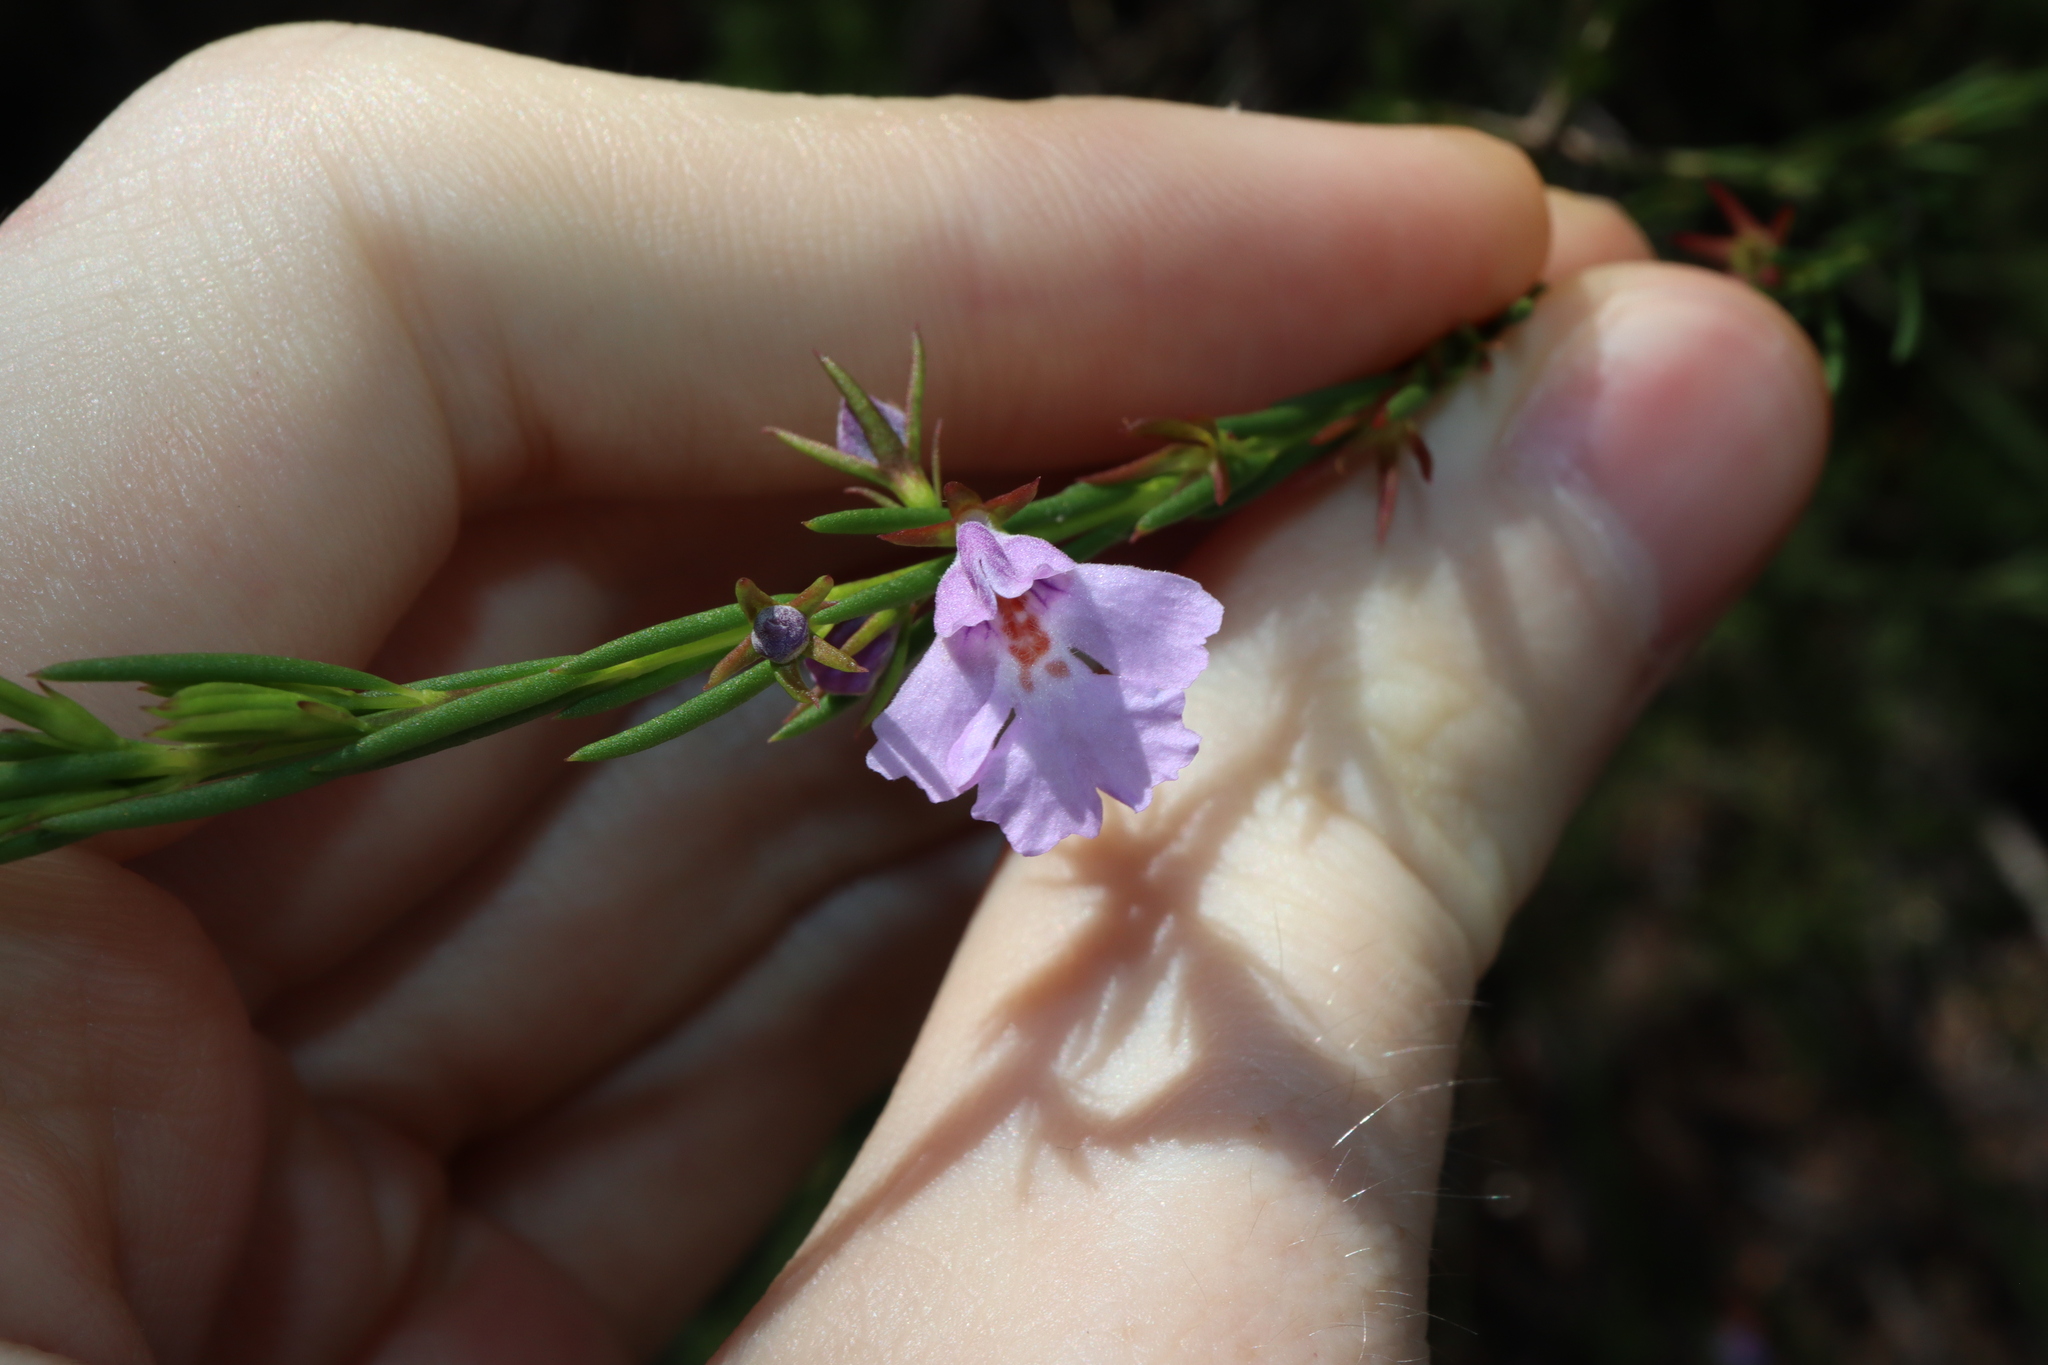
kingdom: Plantae
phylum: Tracheophyta
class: Magnoliopsida
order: Lamiales
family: Lamiaceae
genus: Hemigenia
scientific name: Hemigenia purpurea
